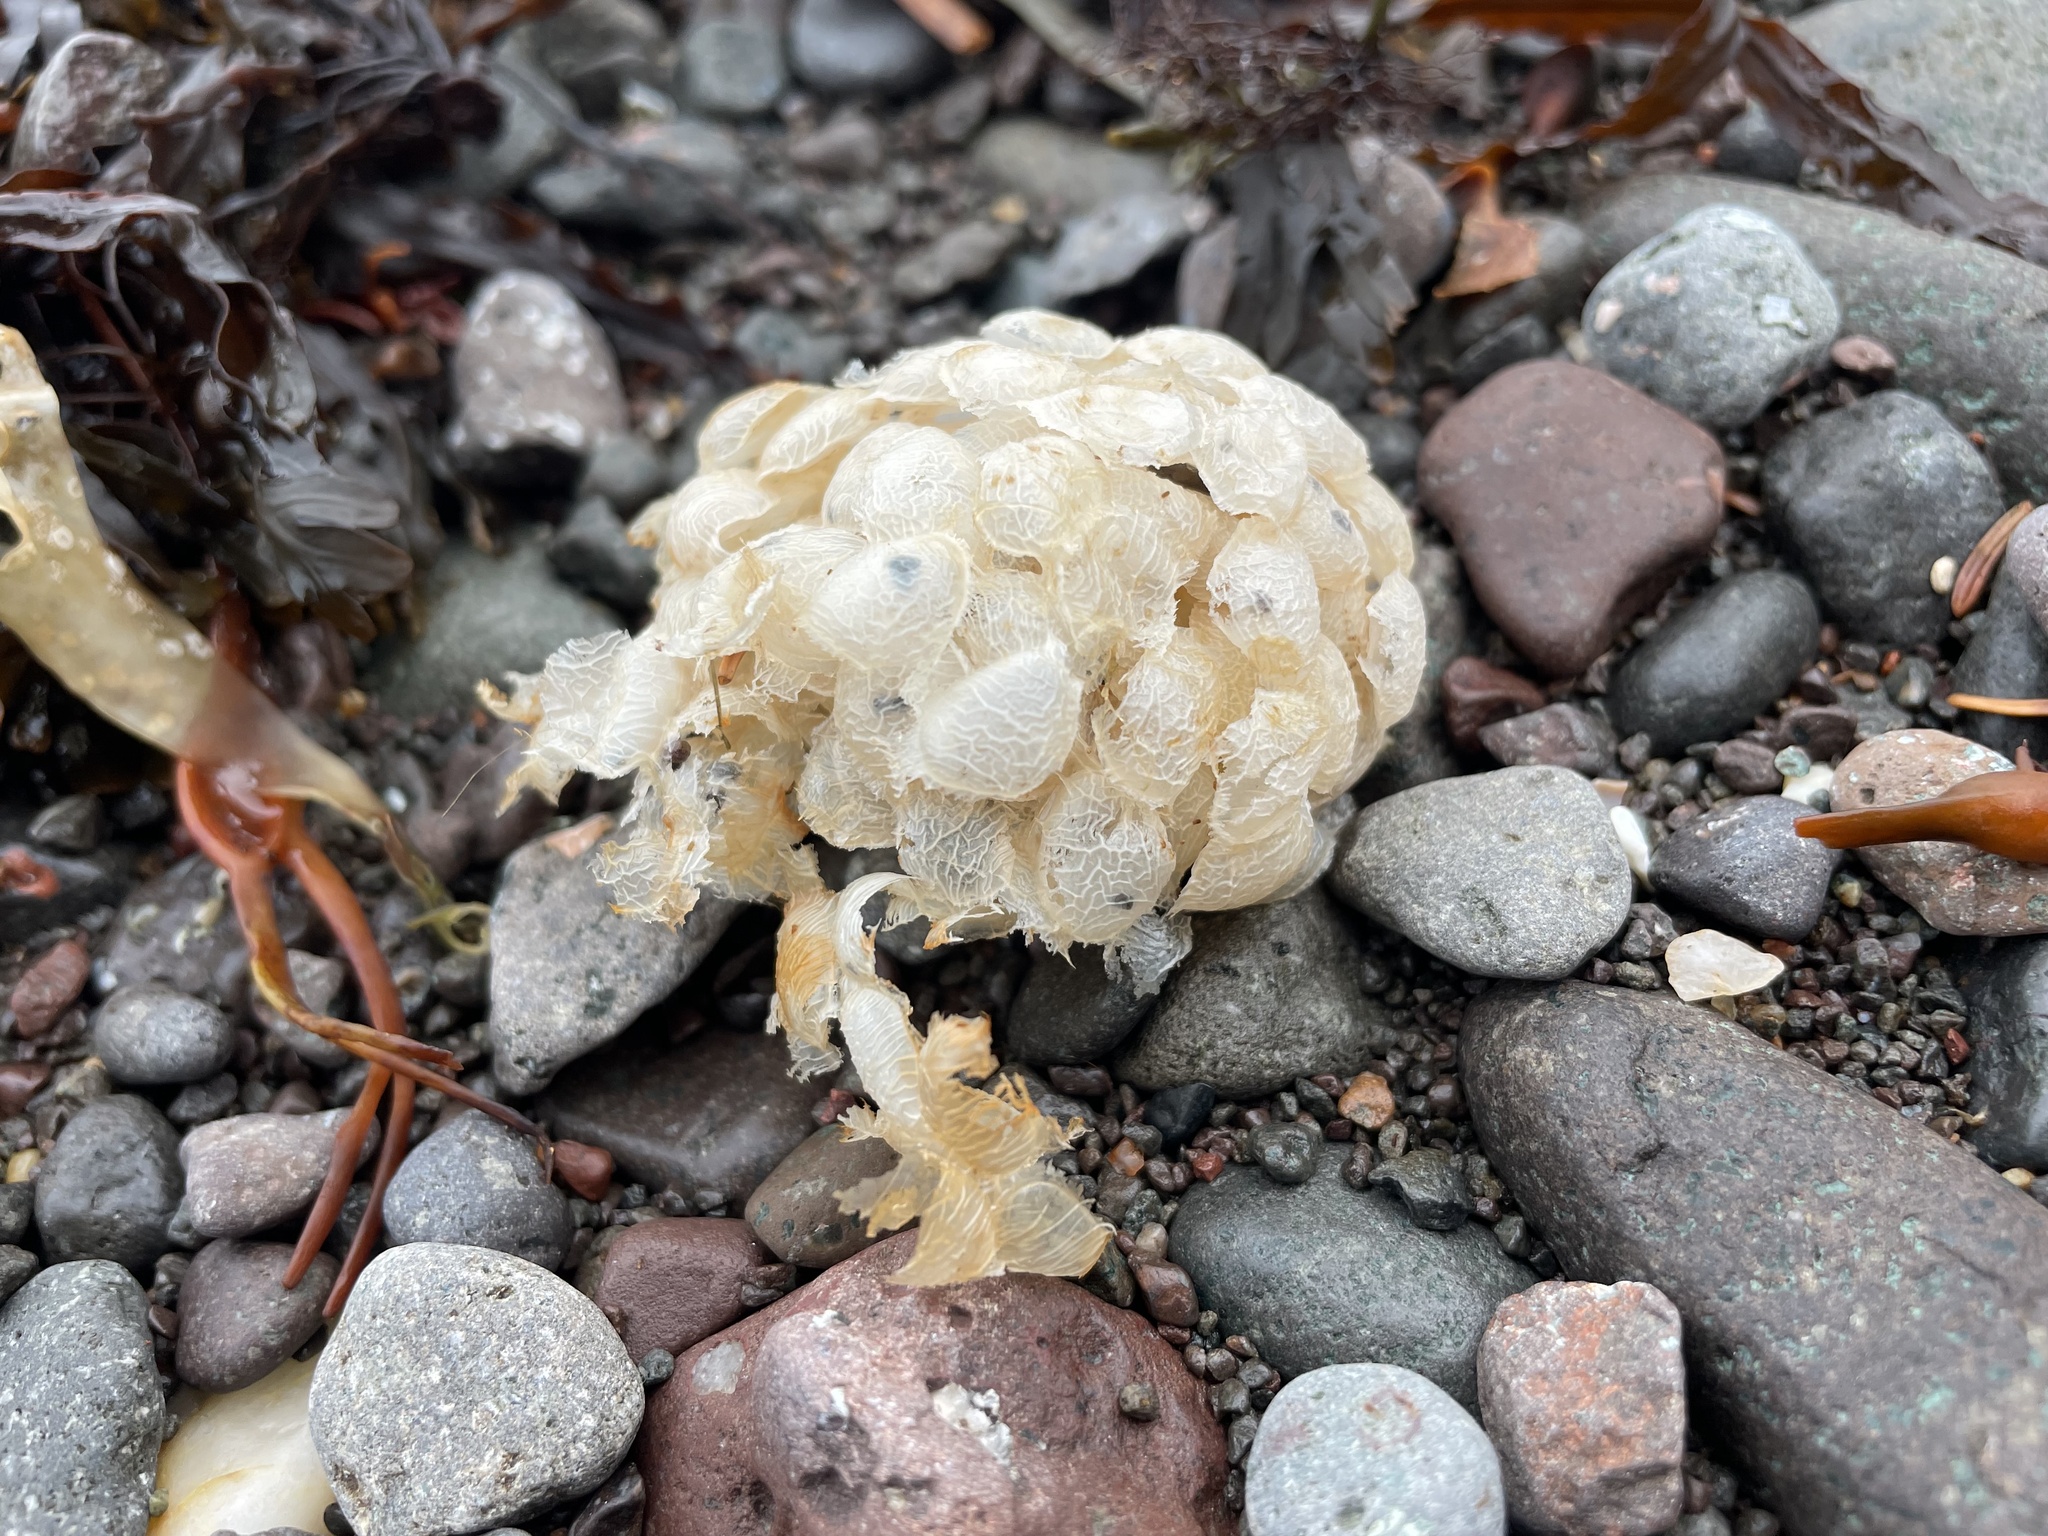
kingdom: Animalia
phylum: Mollusca
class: Gastropoda
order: Neogastropoda
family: Buccinidae
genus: Buccinum
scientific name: Buccinum undatum
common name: Common whelk
